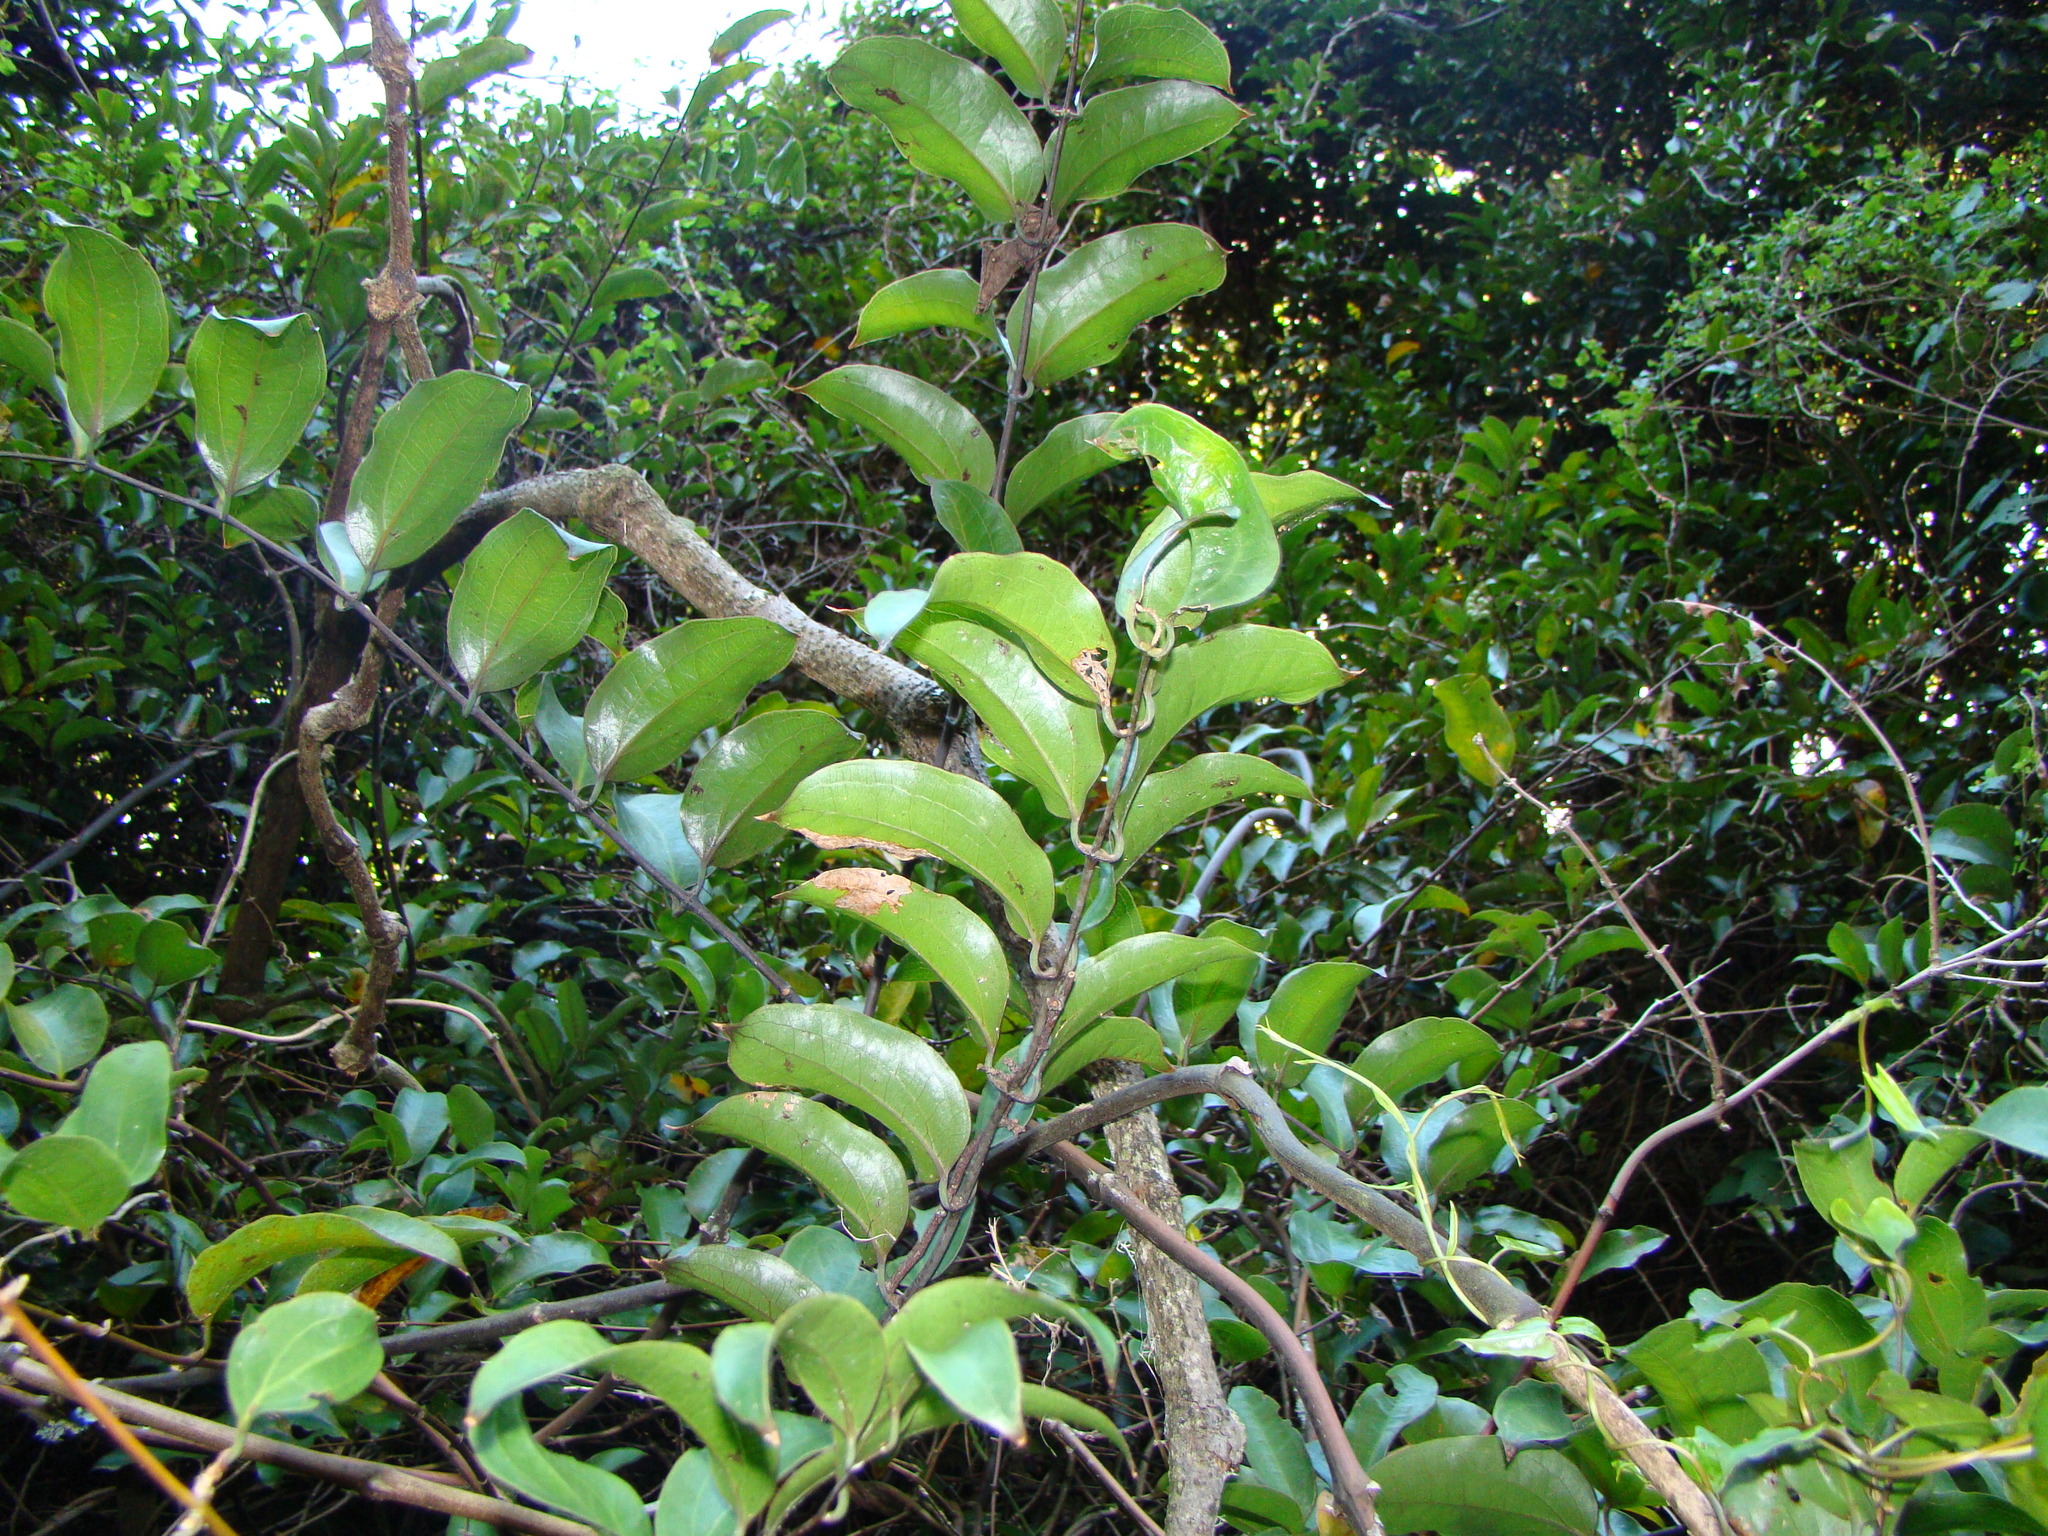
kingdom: Plantae
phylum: Tracheophyta
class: Liliopsida
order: Liliales
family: Ripogonaceae
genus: Ripogonum
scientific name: Ripogonum scandens
